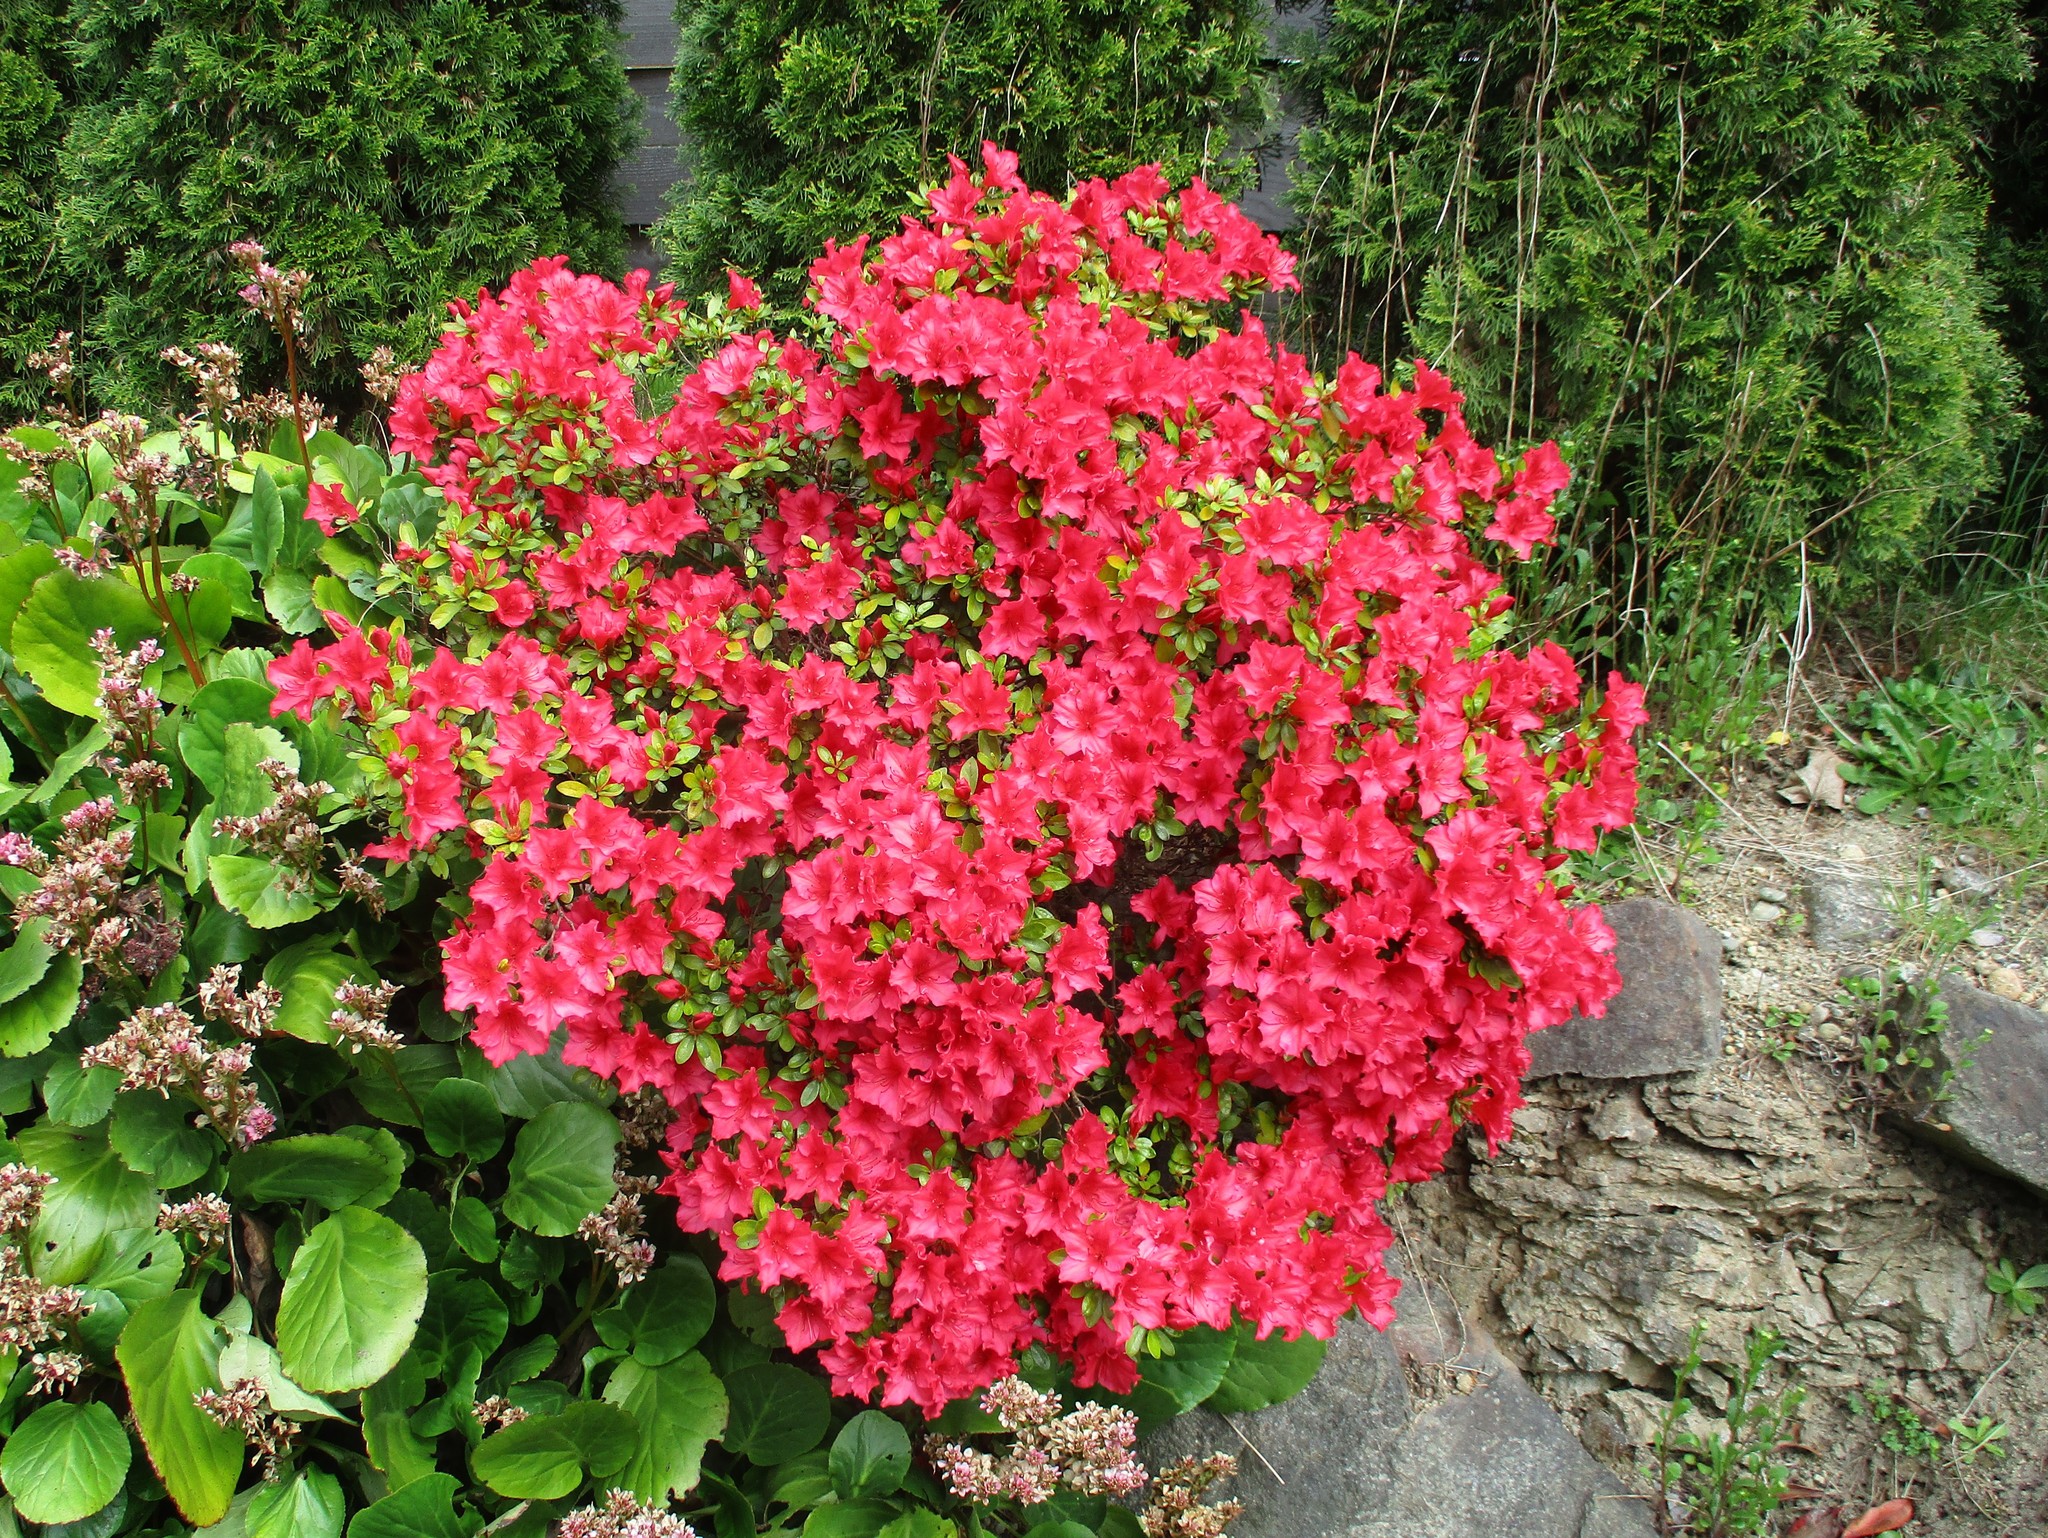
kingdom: Plantae
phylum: Tracheophyta
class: Magnoliopsida
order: Ericales
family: Ericaceae
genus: Rhododendron
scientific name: Rhododendron hybridum
